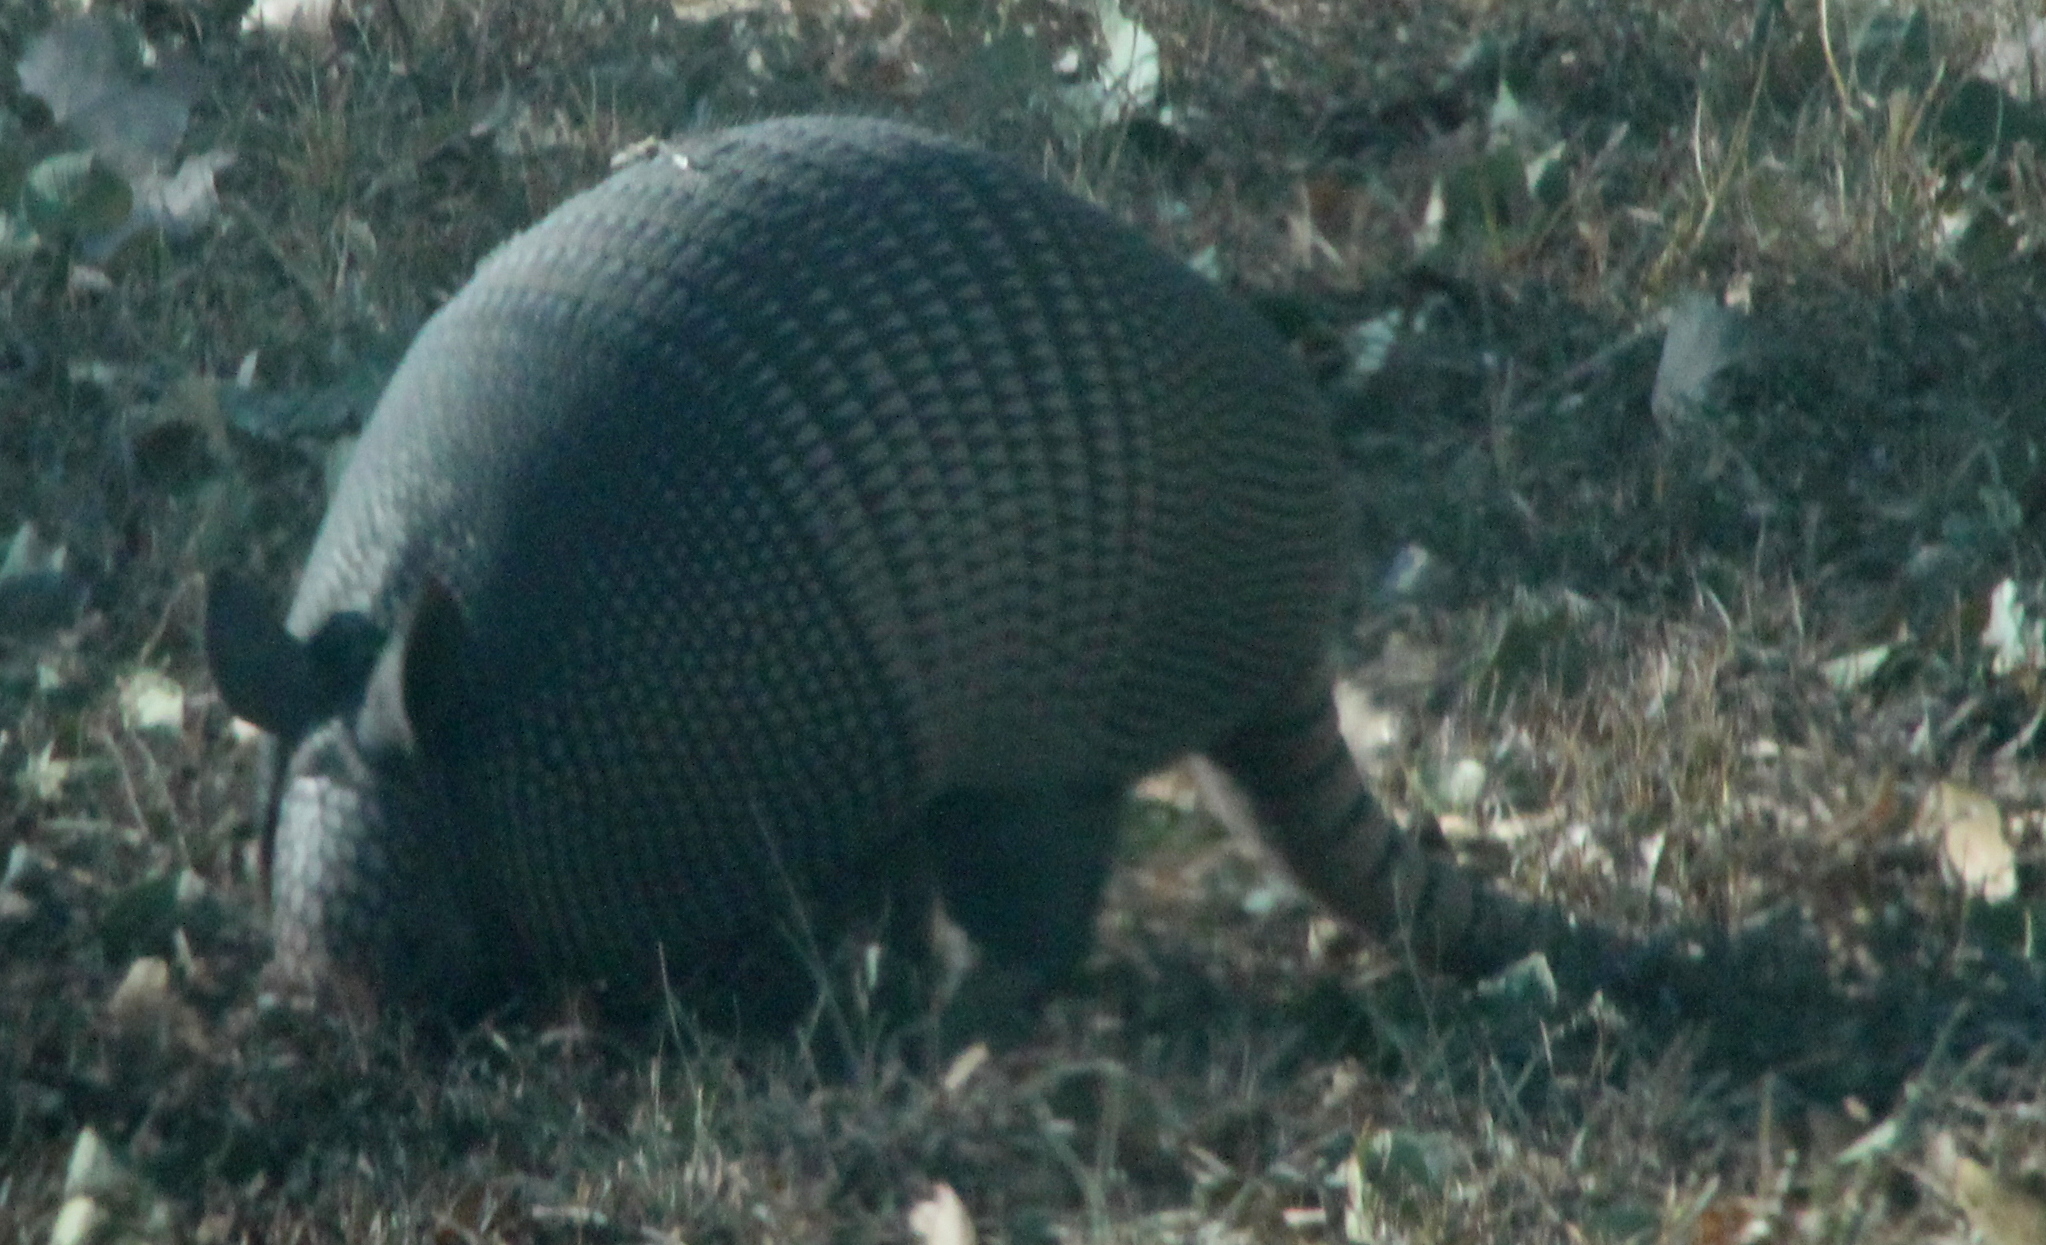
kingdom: Animalia
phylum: Chordata
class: Mammalia
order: Cingulata
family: Dasypodidae
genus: Dasypus
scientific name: Dasypus novemcinctus
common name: Nine-banded armadillo
